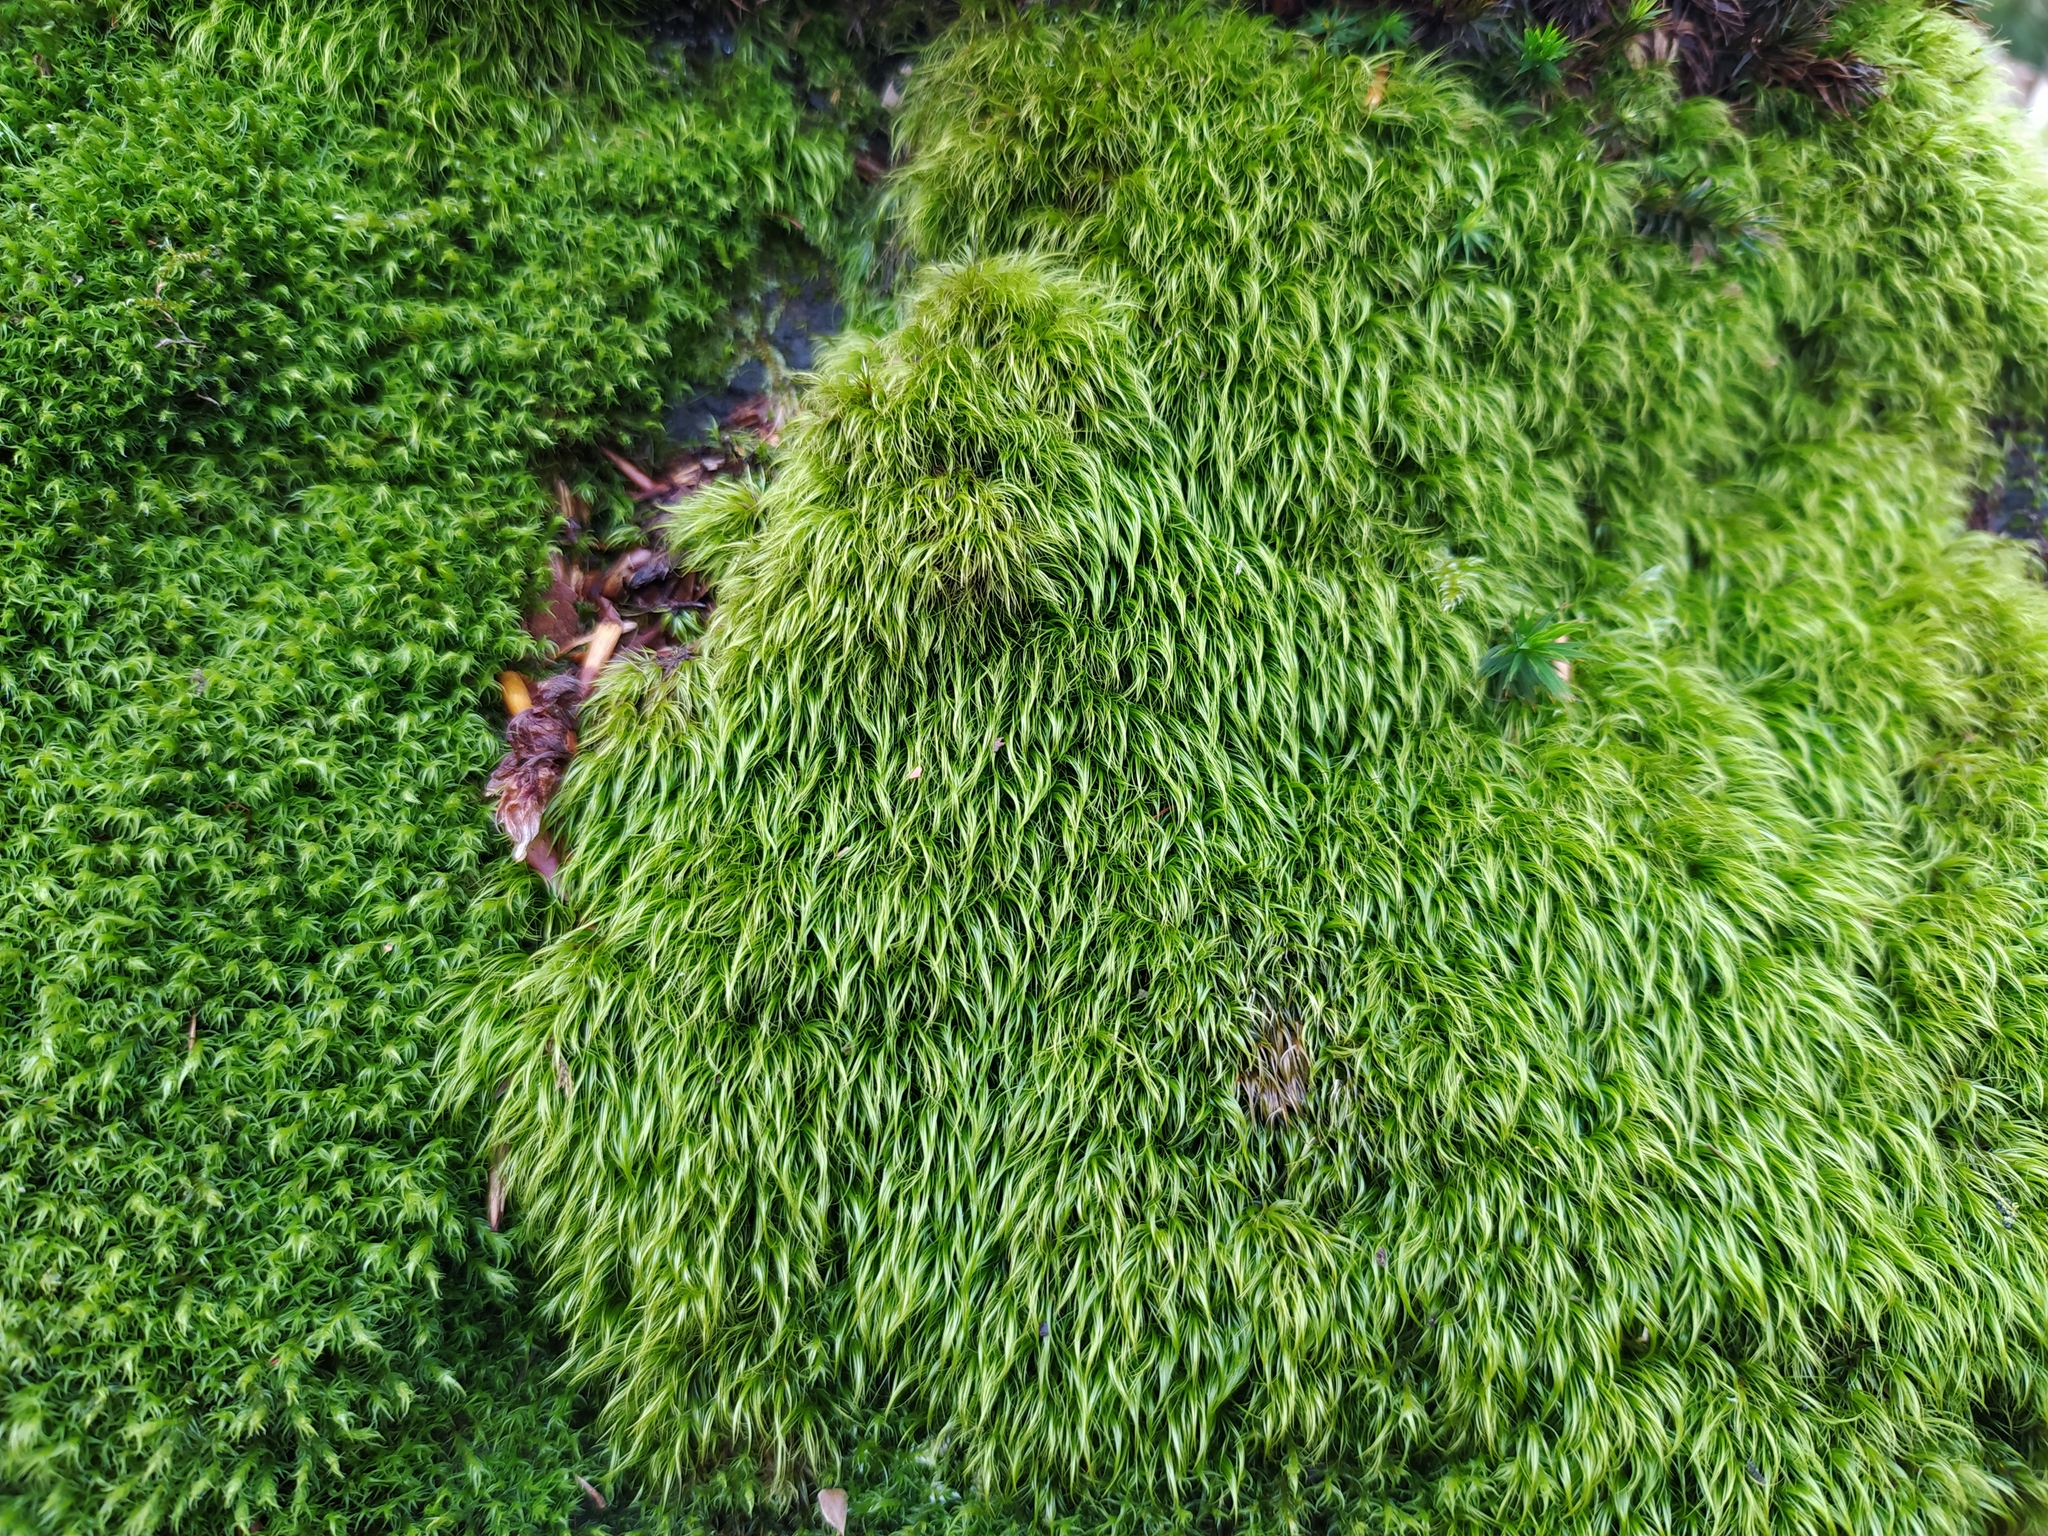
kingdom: Plantae
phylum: Bryophyta
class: Bryopsida
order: Dicranales
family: Dicranaceae
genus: Paraleucobryum
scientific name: Paraleucobryum longifolium
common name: Long-leaved fork moss
